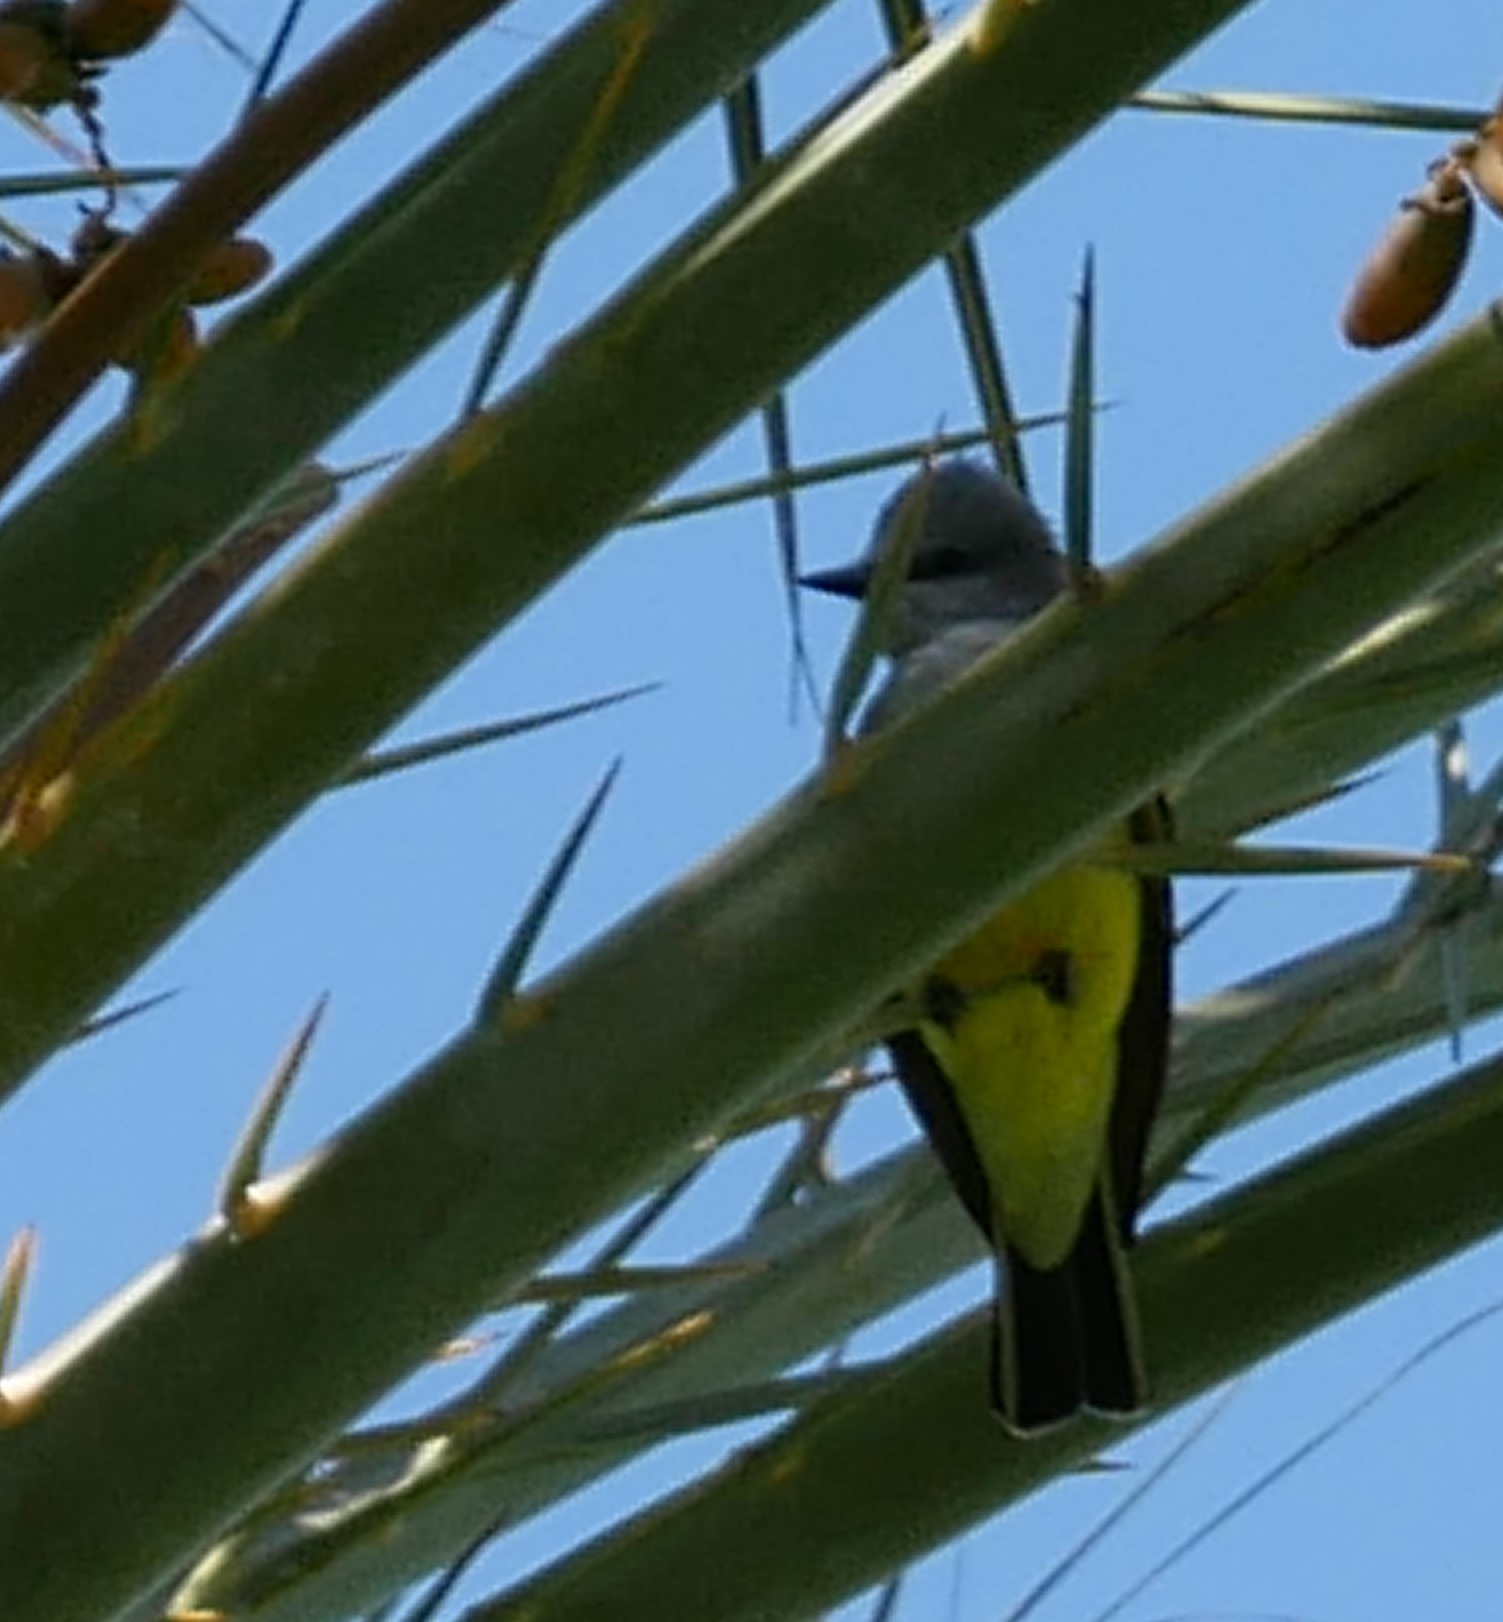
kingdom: Animalia
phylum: Chordata
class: Aves
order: Passeriformes
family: Tyrannidae
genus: Tyrannus
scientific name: Tyrannus verticalis
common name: Western kingbird
